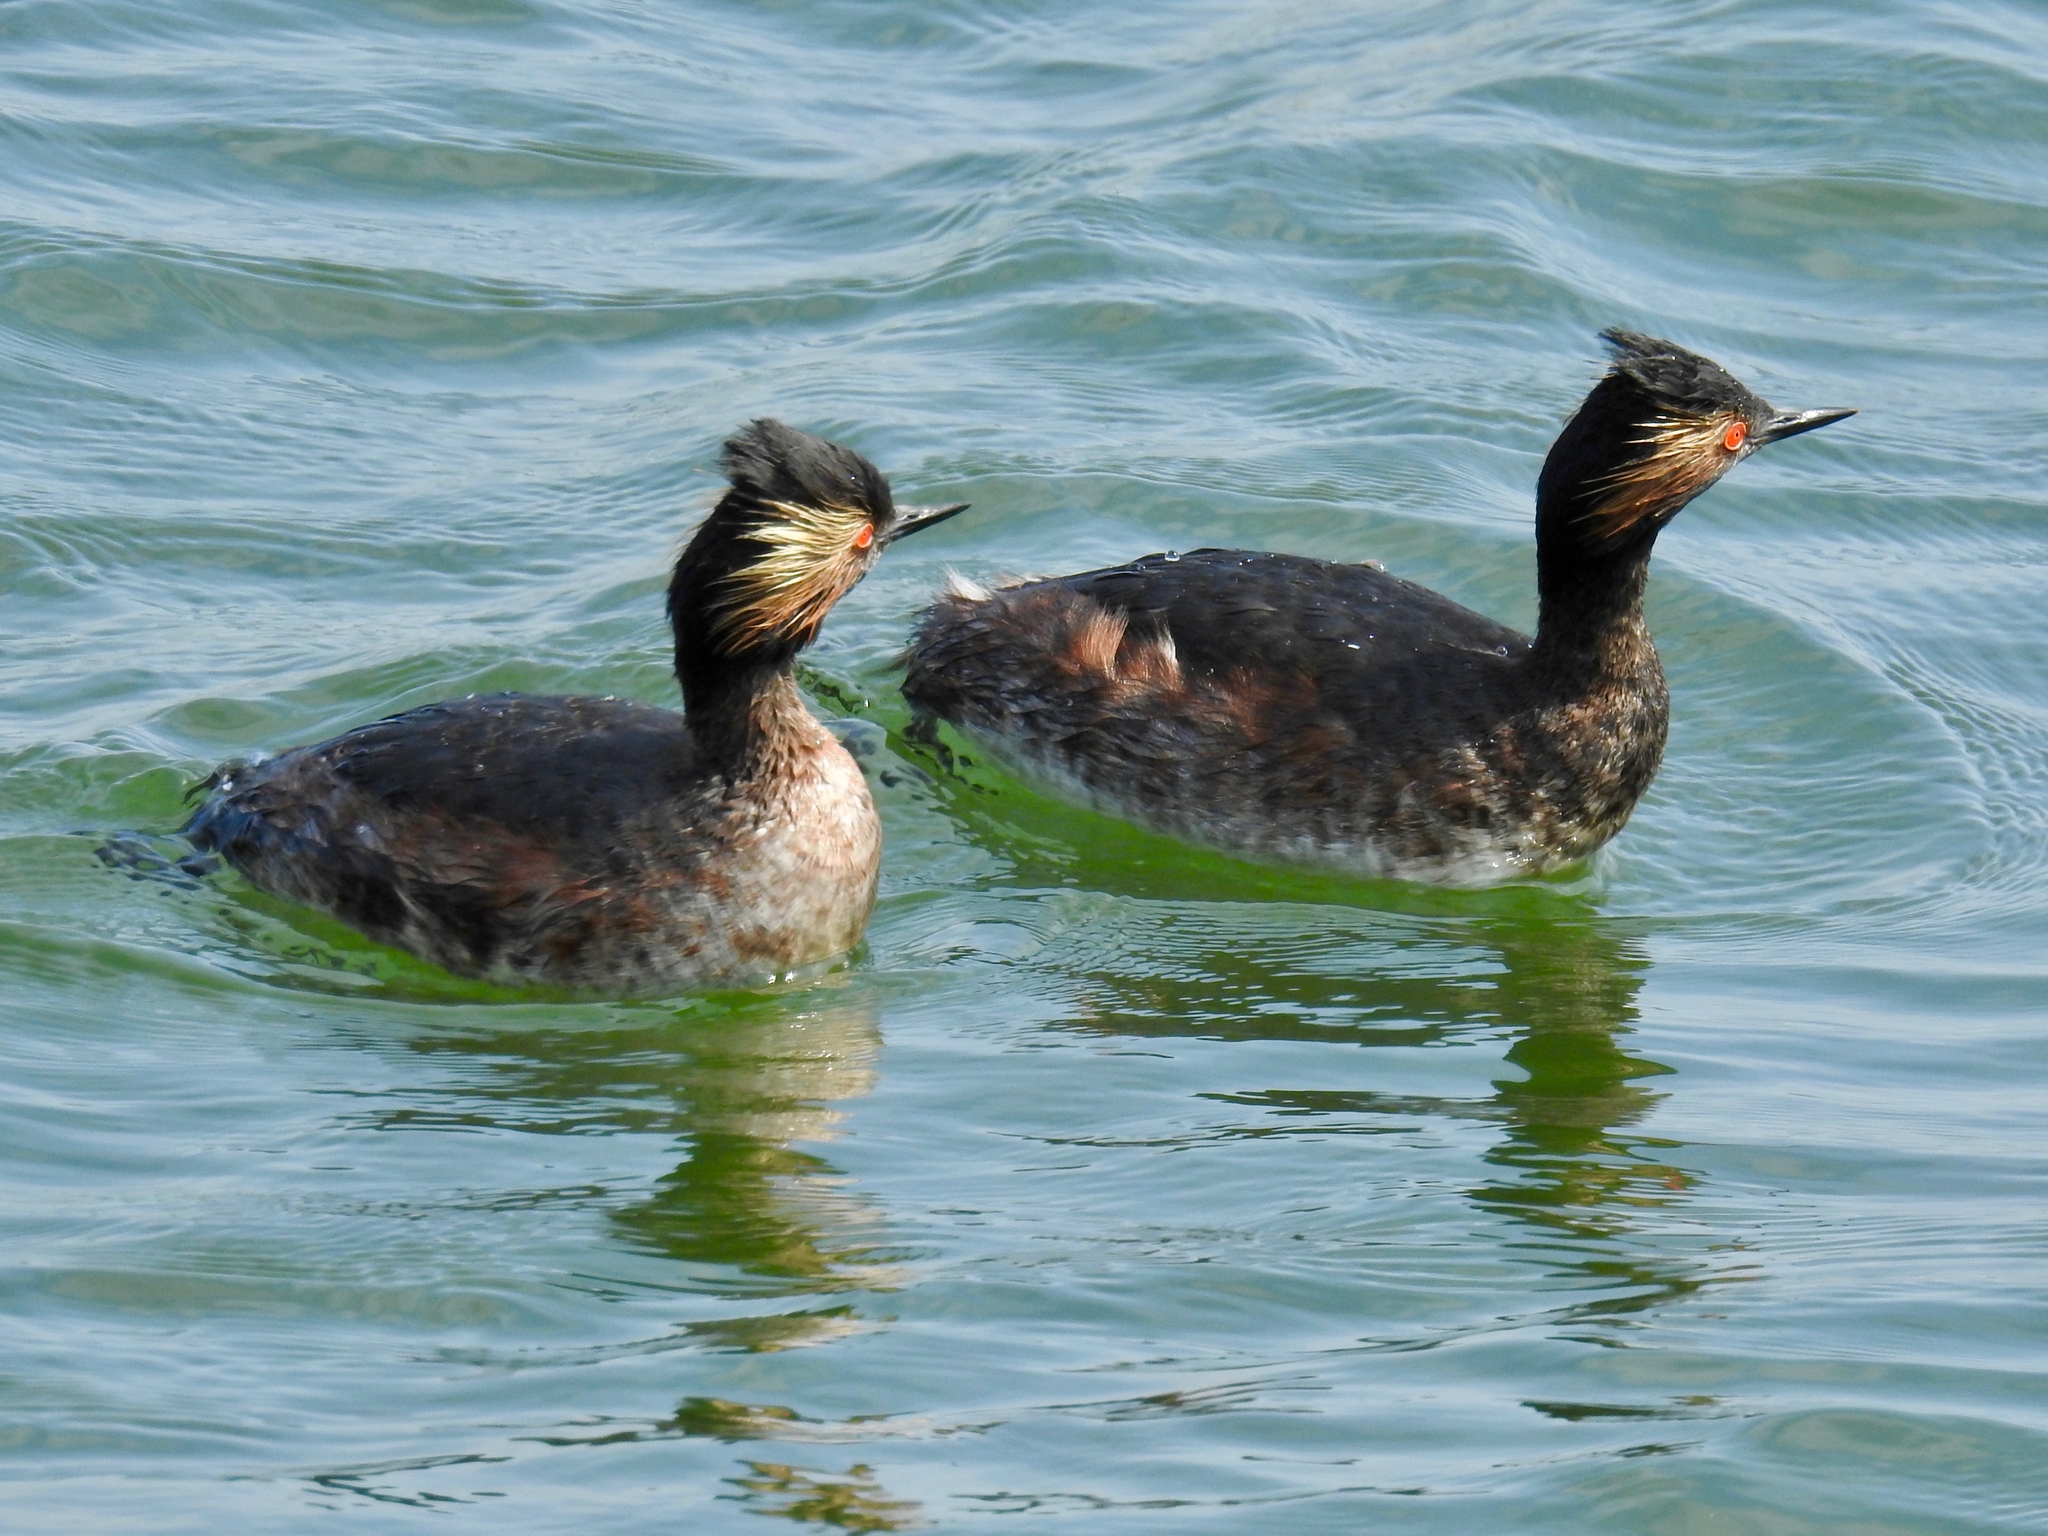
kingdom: Animalia
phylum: Chordata
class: Aves
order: Podicipediformes
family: Podicipedidae
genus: Podiceps
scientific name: Podiceps nigricollis
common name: Black-necked grebe
